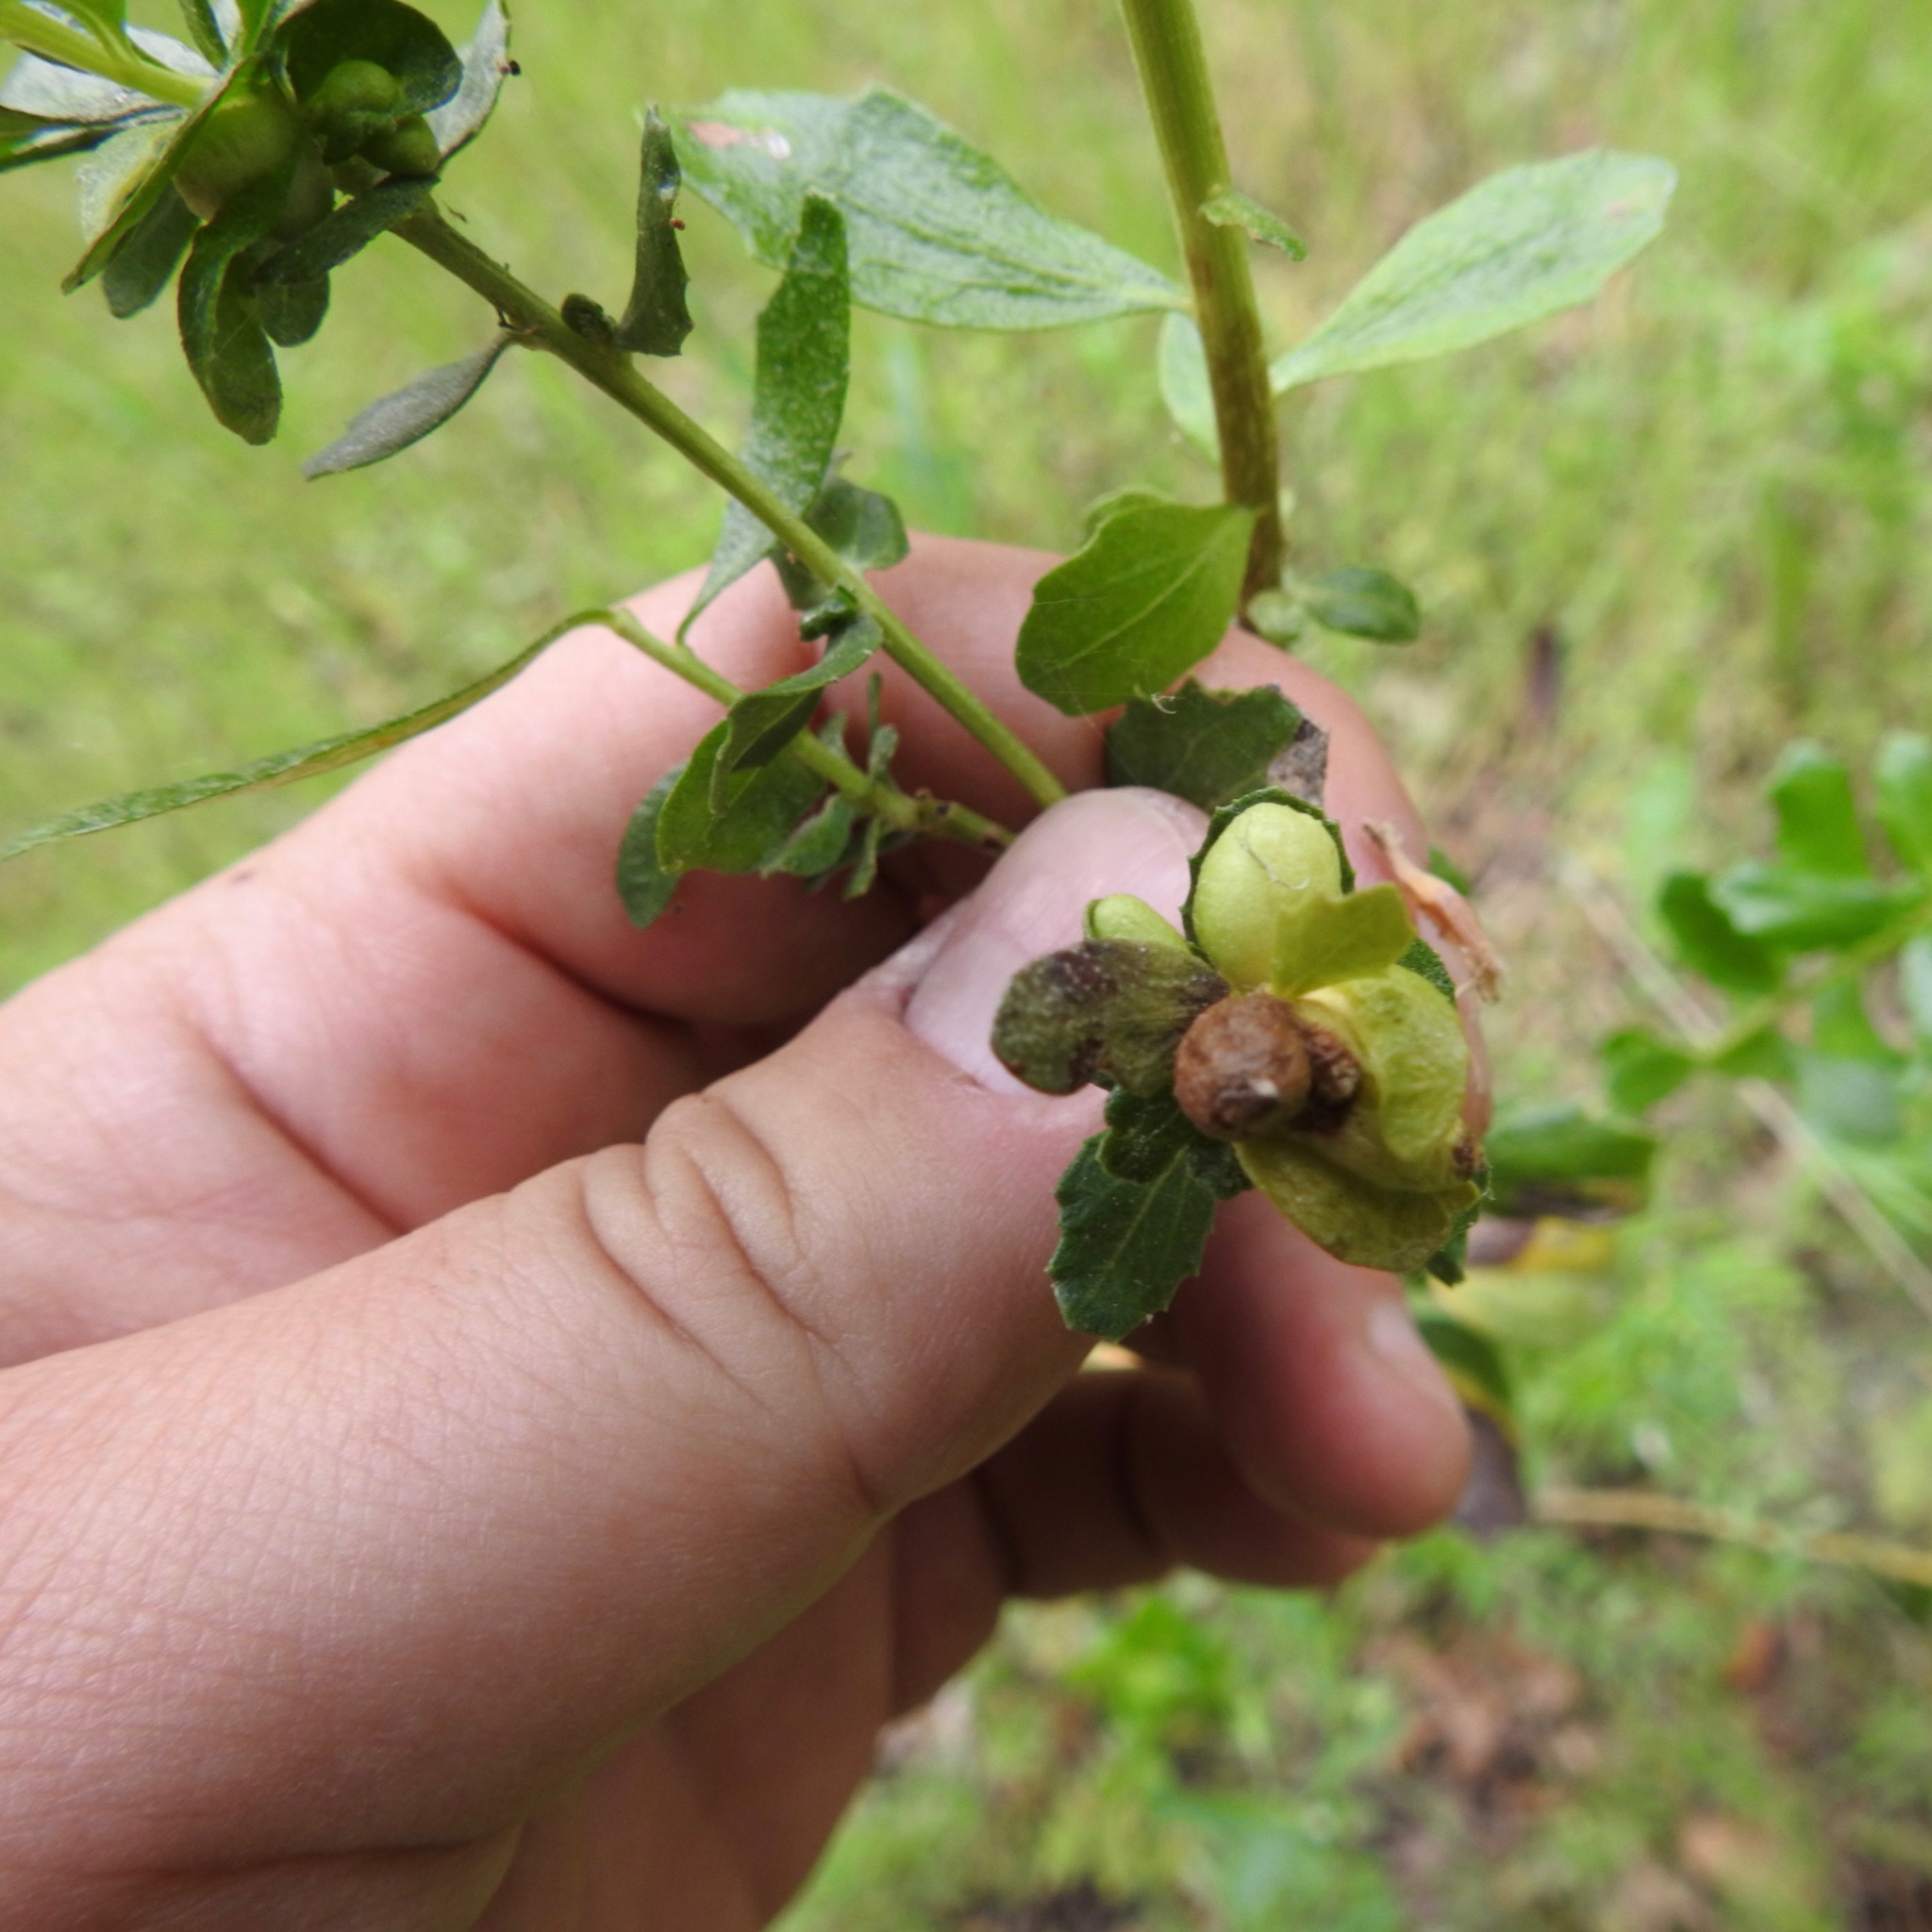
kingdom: Animalia
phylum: Arthropoda
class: Insecta
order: Diptera
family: Cecidomyiidae
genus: Rhopalomyia
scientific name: Rhopalomyia californica
